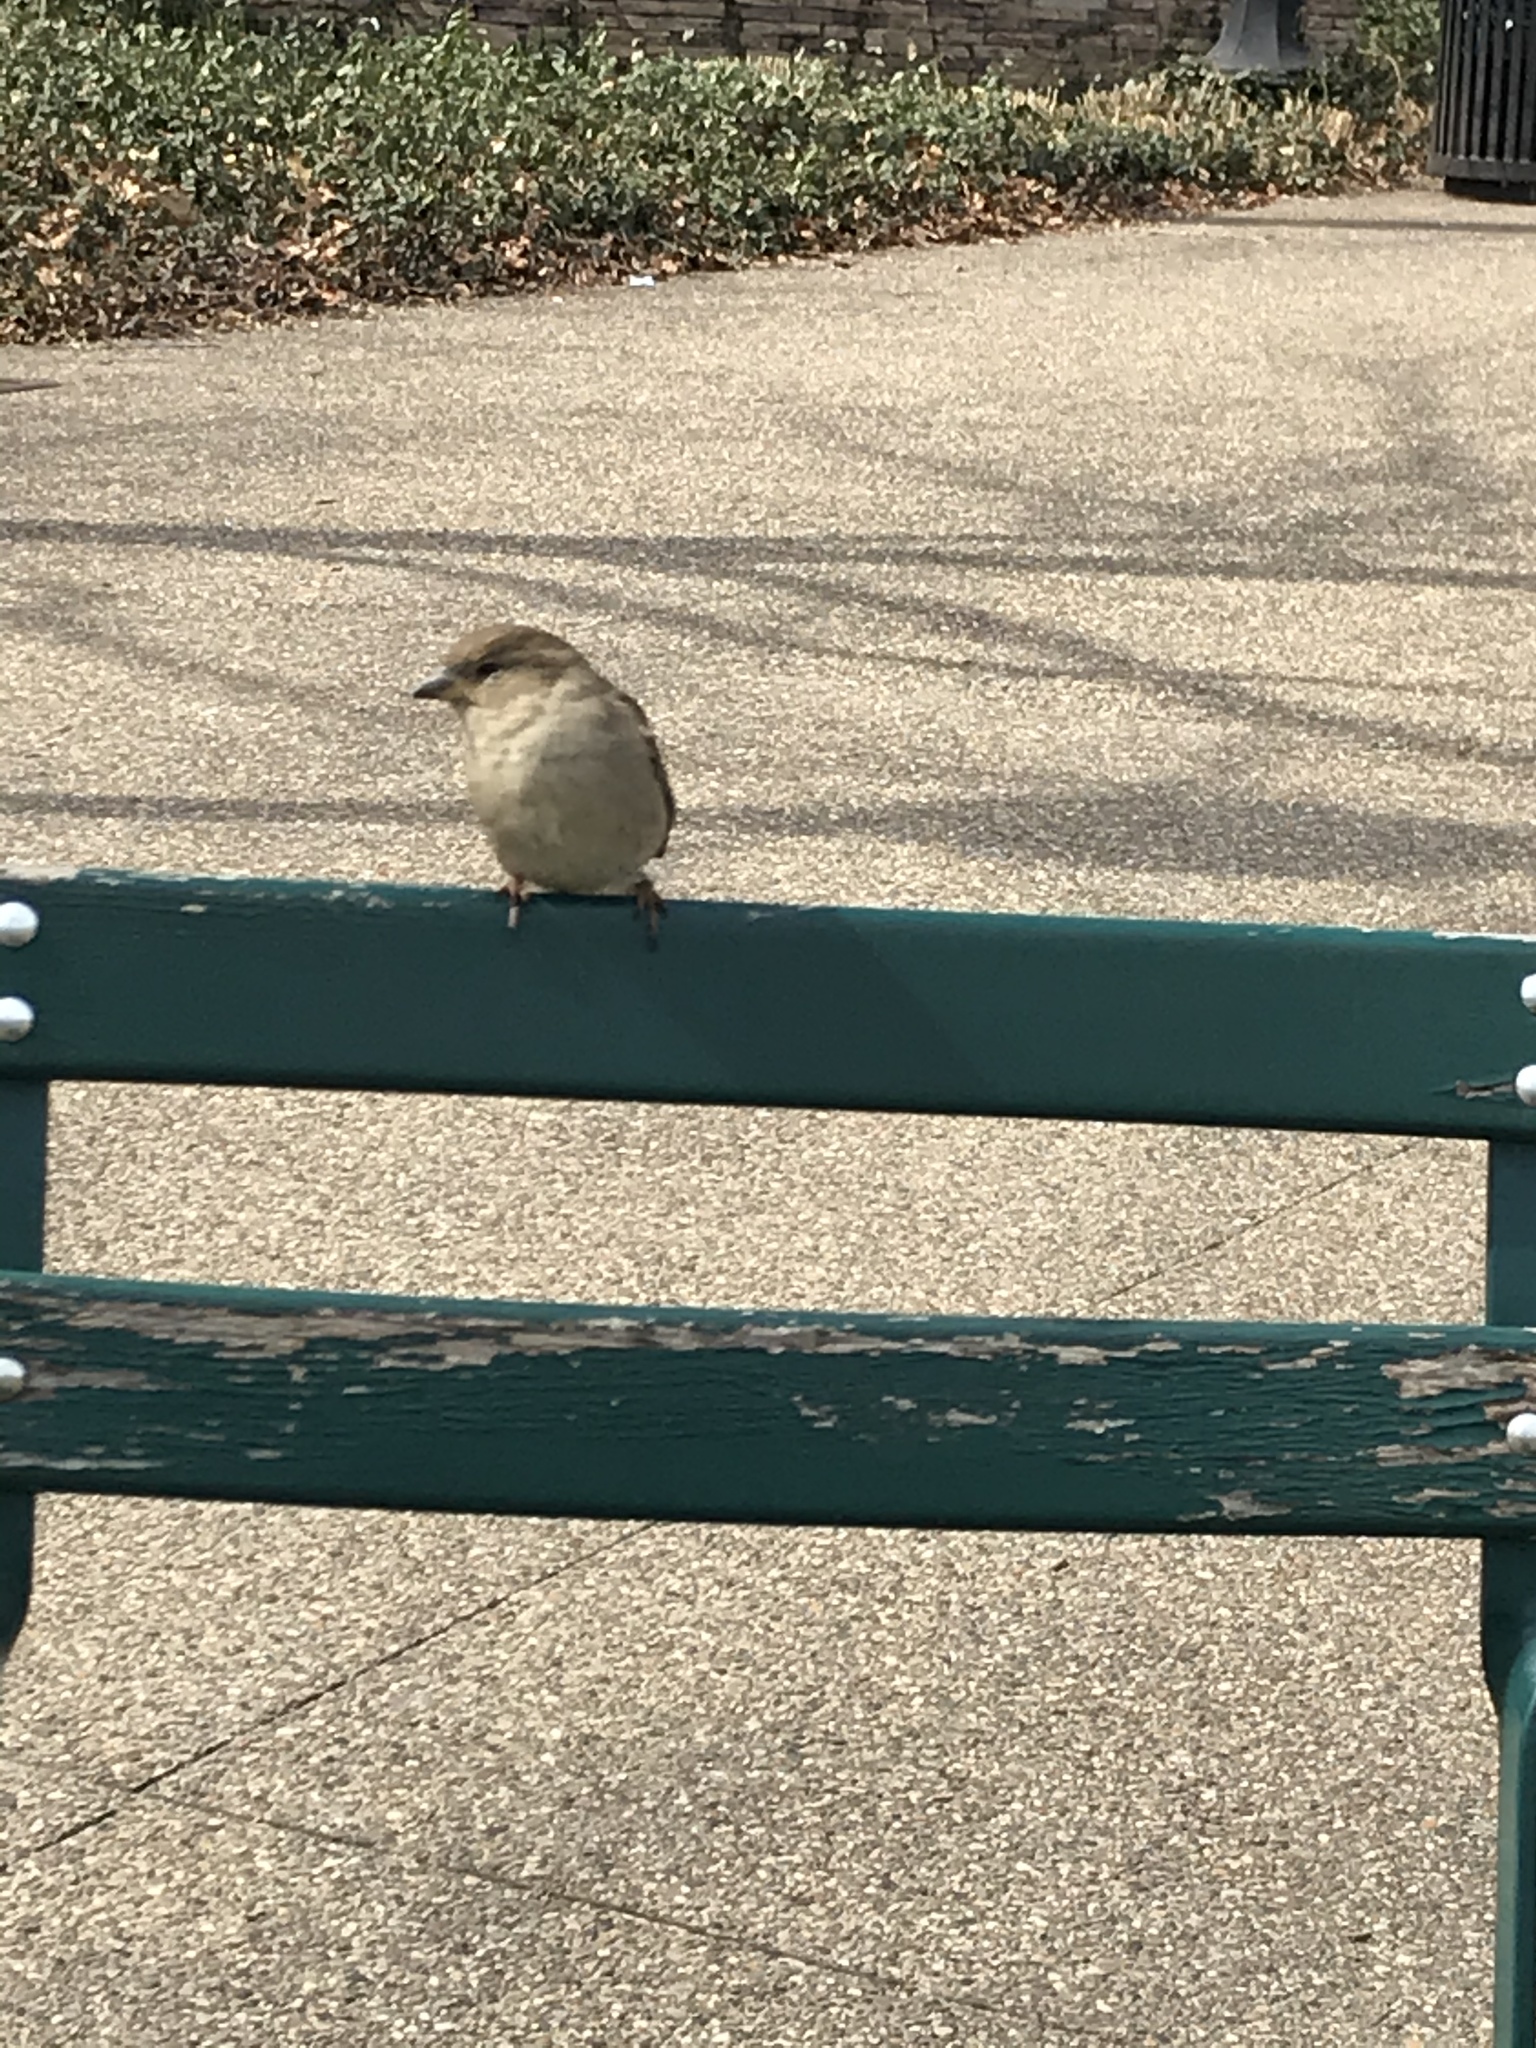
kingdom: Animalia
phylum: Chordata
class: Aves
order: Passeriformes
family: Passeridae
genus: Passer
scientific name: Passer domesticus
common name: House sparrow
